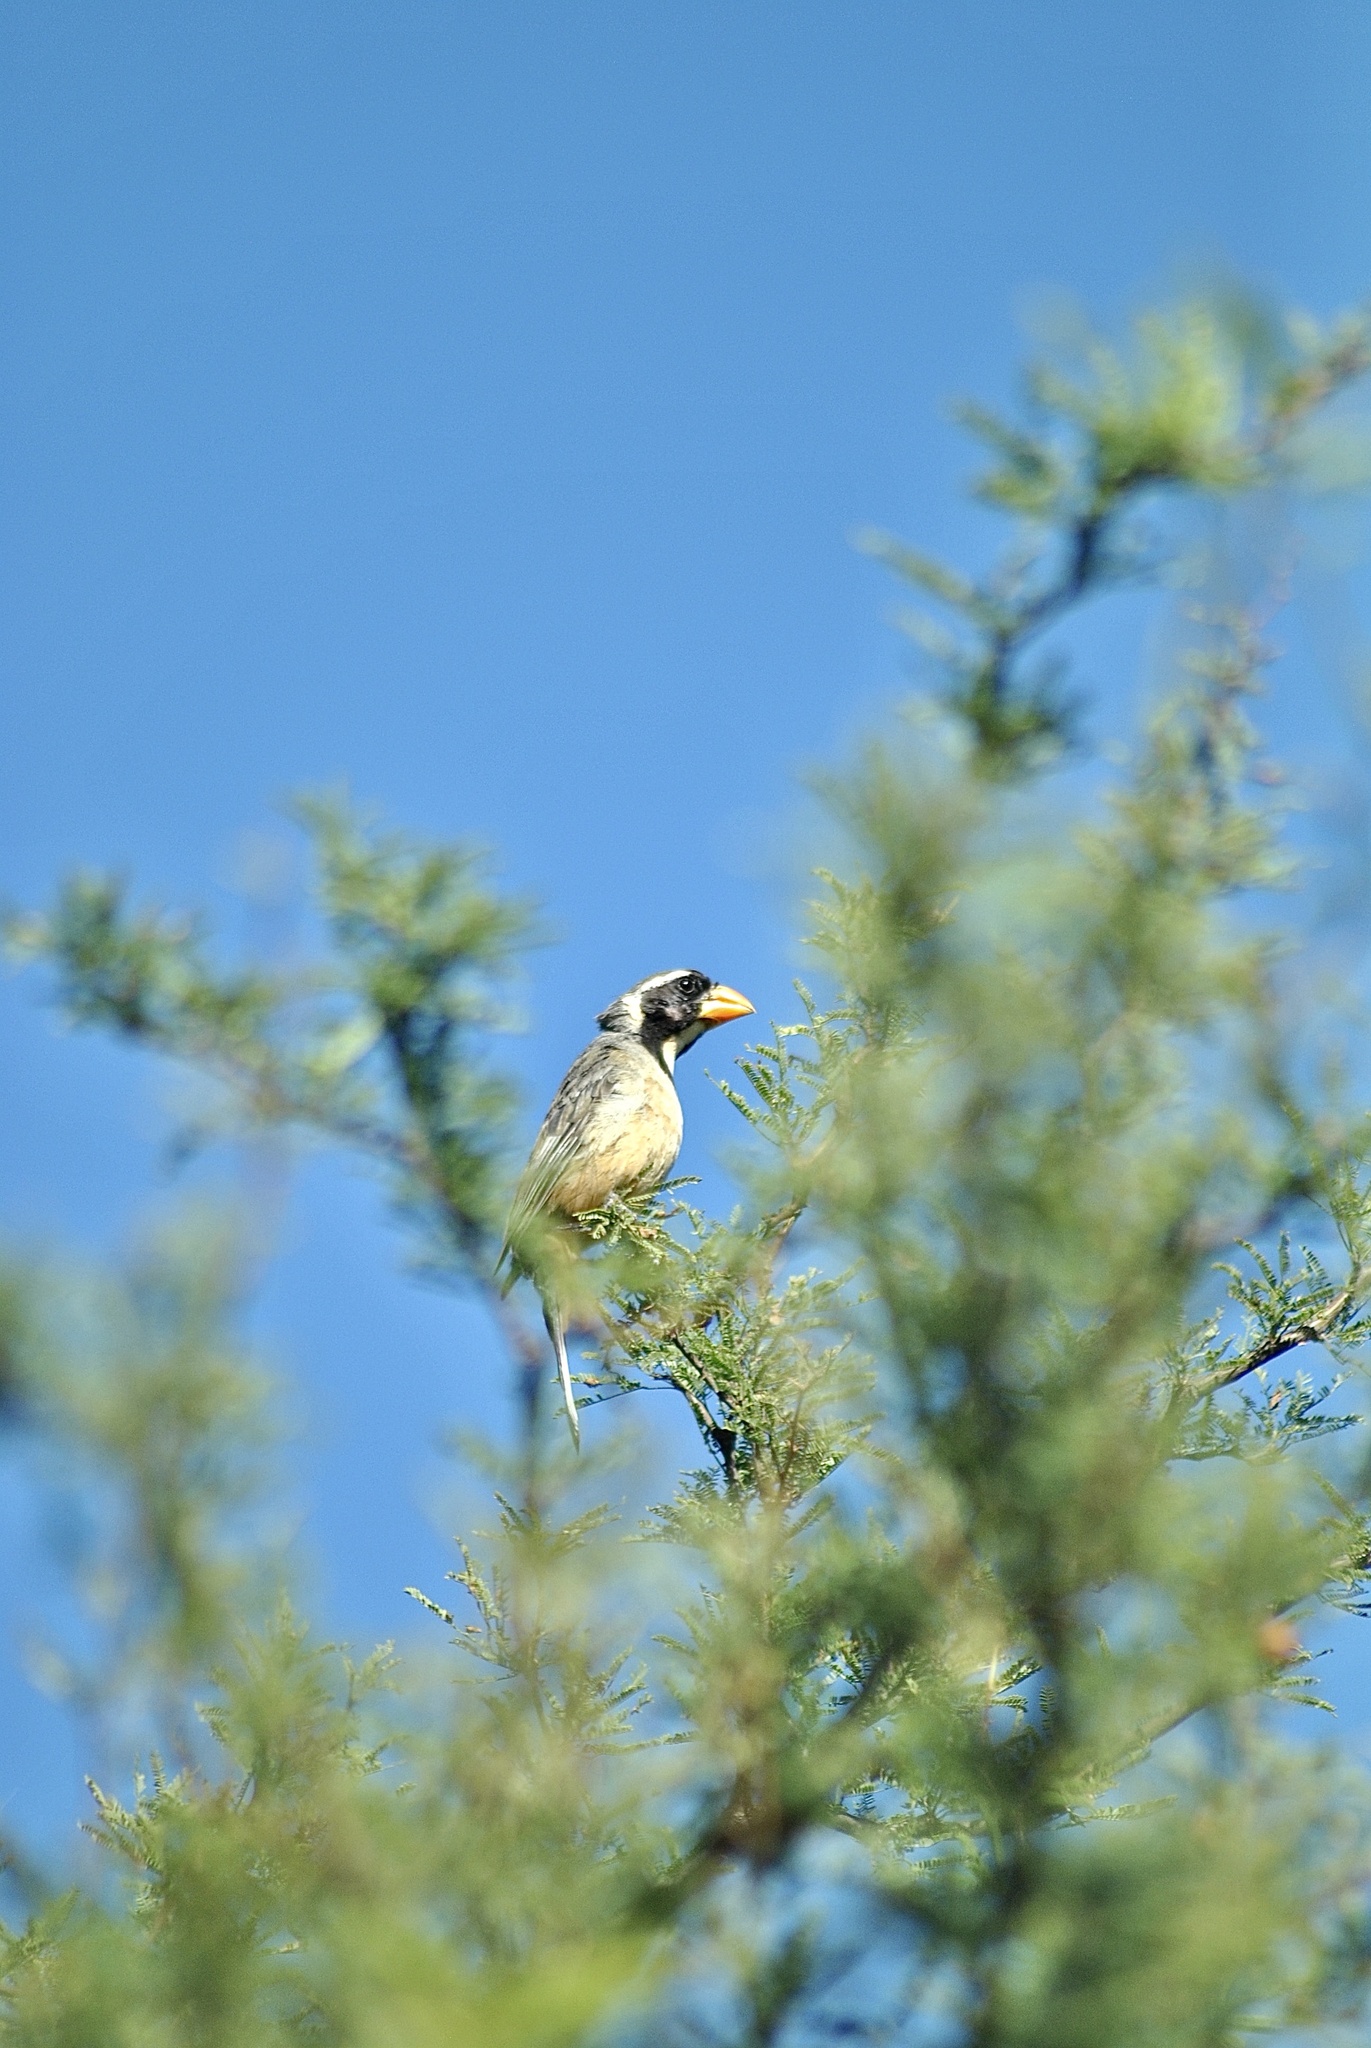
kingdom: Animalia
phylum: Chordata
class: Aves
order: Passeriformes
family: Thraupidae
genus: Saltator
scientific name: Saltator aurantiirostris
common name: Golden-billed saltator
